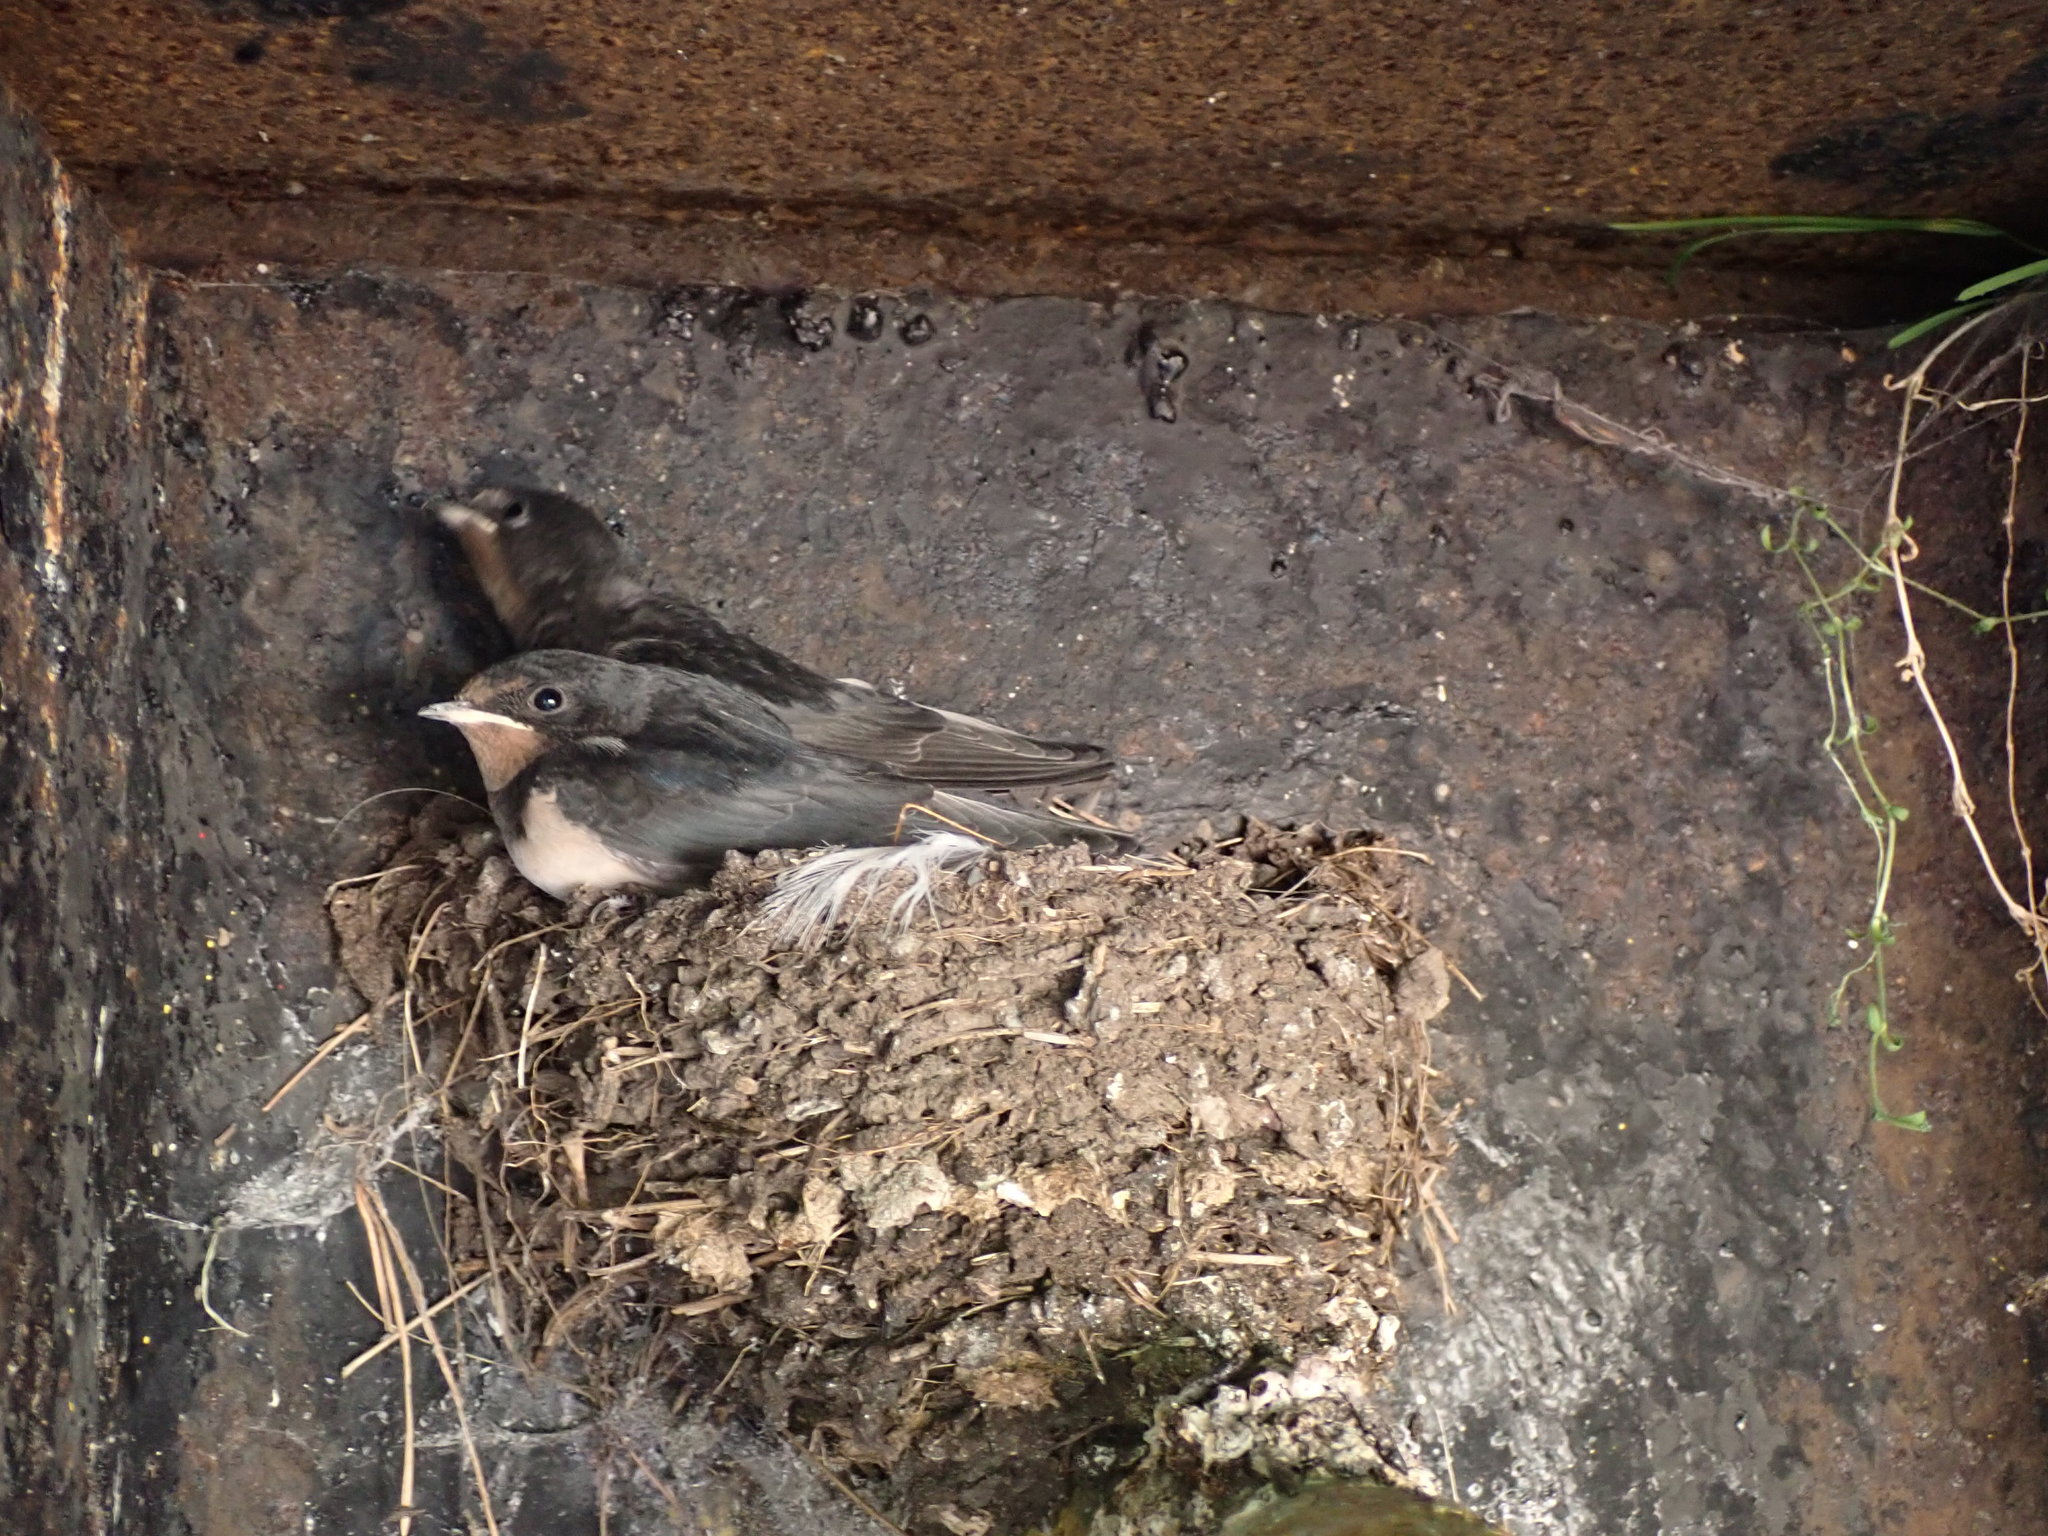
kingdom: Animalia
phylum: Chordata
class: Aves
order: Passeriformes
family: Hirundinidae
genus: Hirundo
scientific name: Hirundo rustica
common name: Barn swallow
